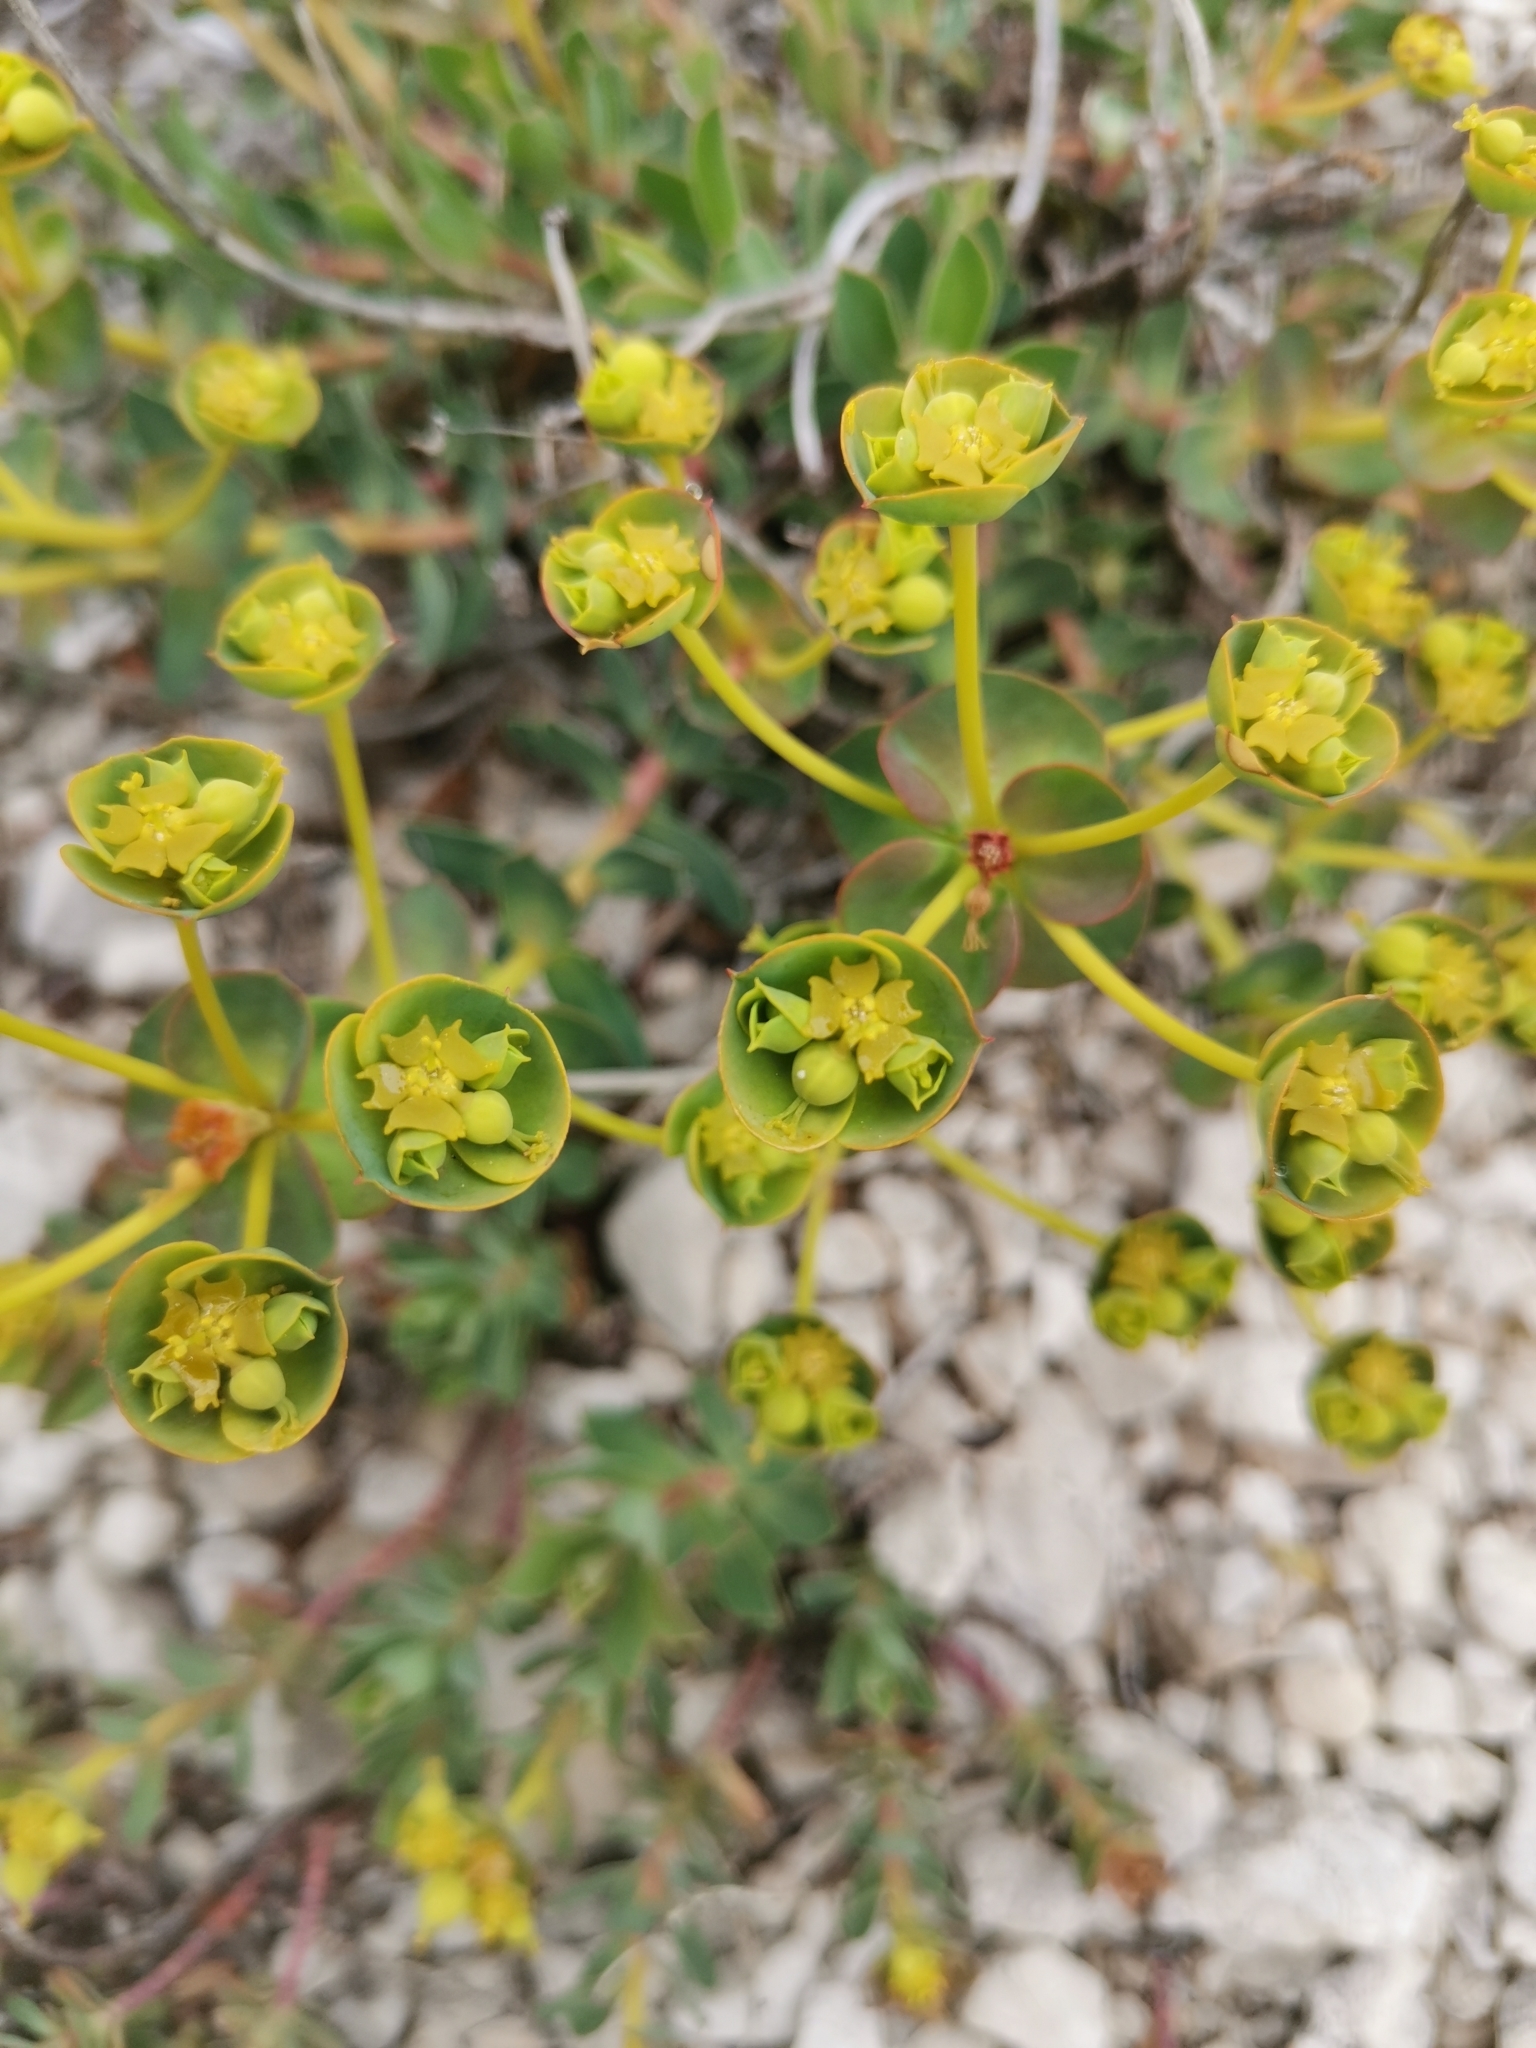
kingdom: Plantae
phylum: Tracheophyta
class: Magnoliopsida
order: Malpighiales
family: Euphorbiaceae
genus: Euphorbia
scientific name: Euphorbia barrelieri
